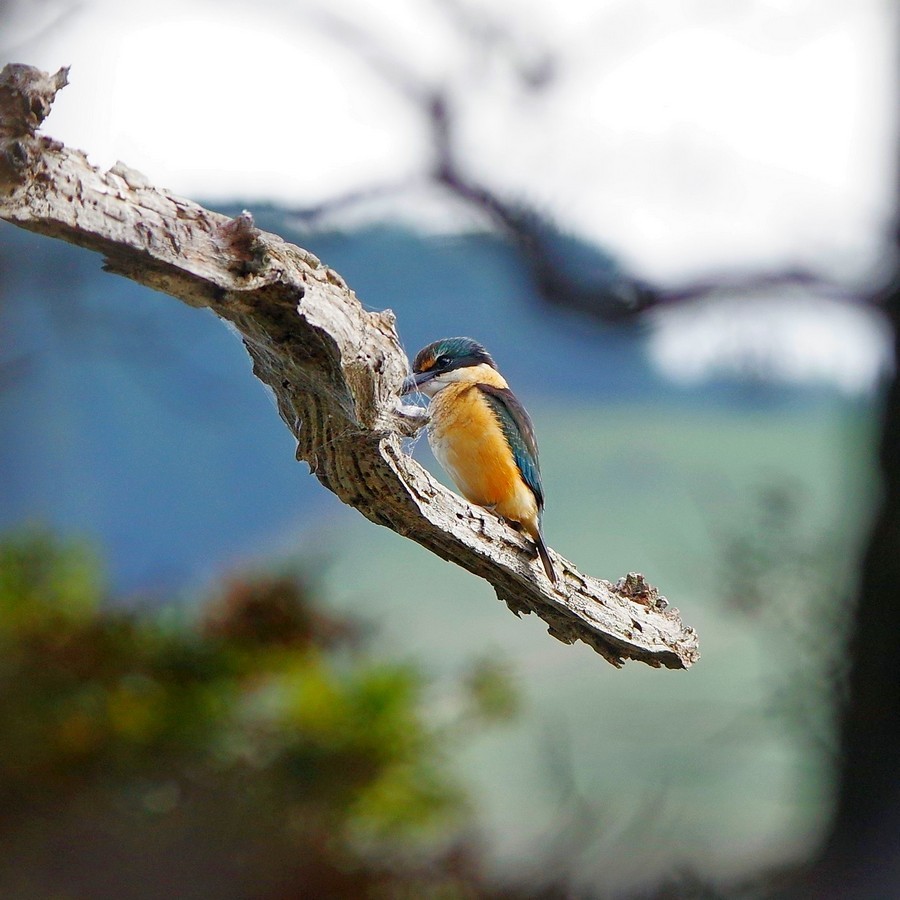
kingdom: Animalia
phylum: Chordata
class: Aves
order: Coraciiformes
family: Alcedinidae
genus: Todiramphus
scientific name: Todiramphus sanctus
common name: Sacred kingfisher
